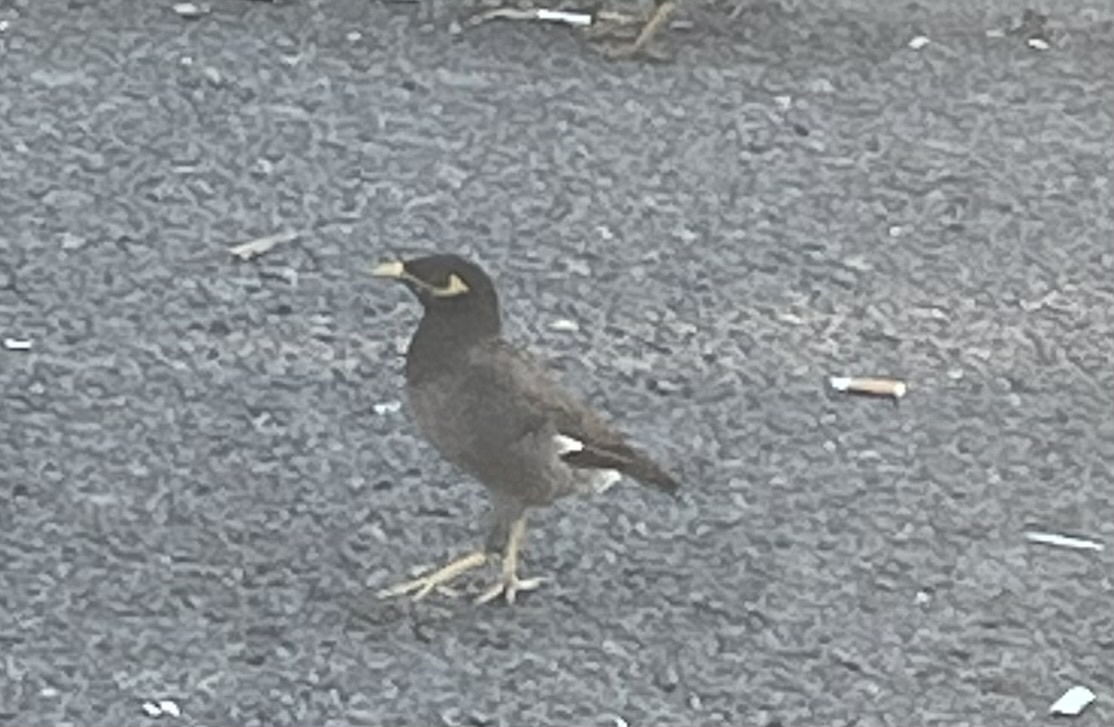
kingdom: Animalia
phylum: Chordata
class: Aves
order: Passeriformes
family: Sturnidae
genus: Acridotheres
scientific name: Acridotheres tristis
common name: Common myna
